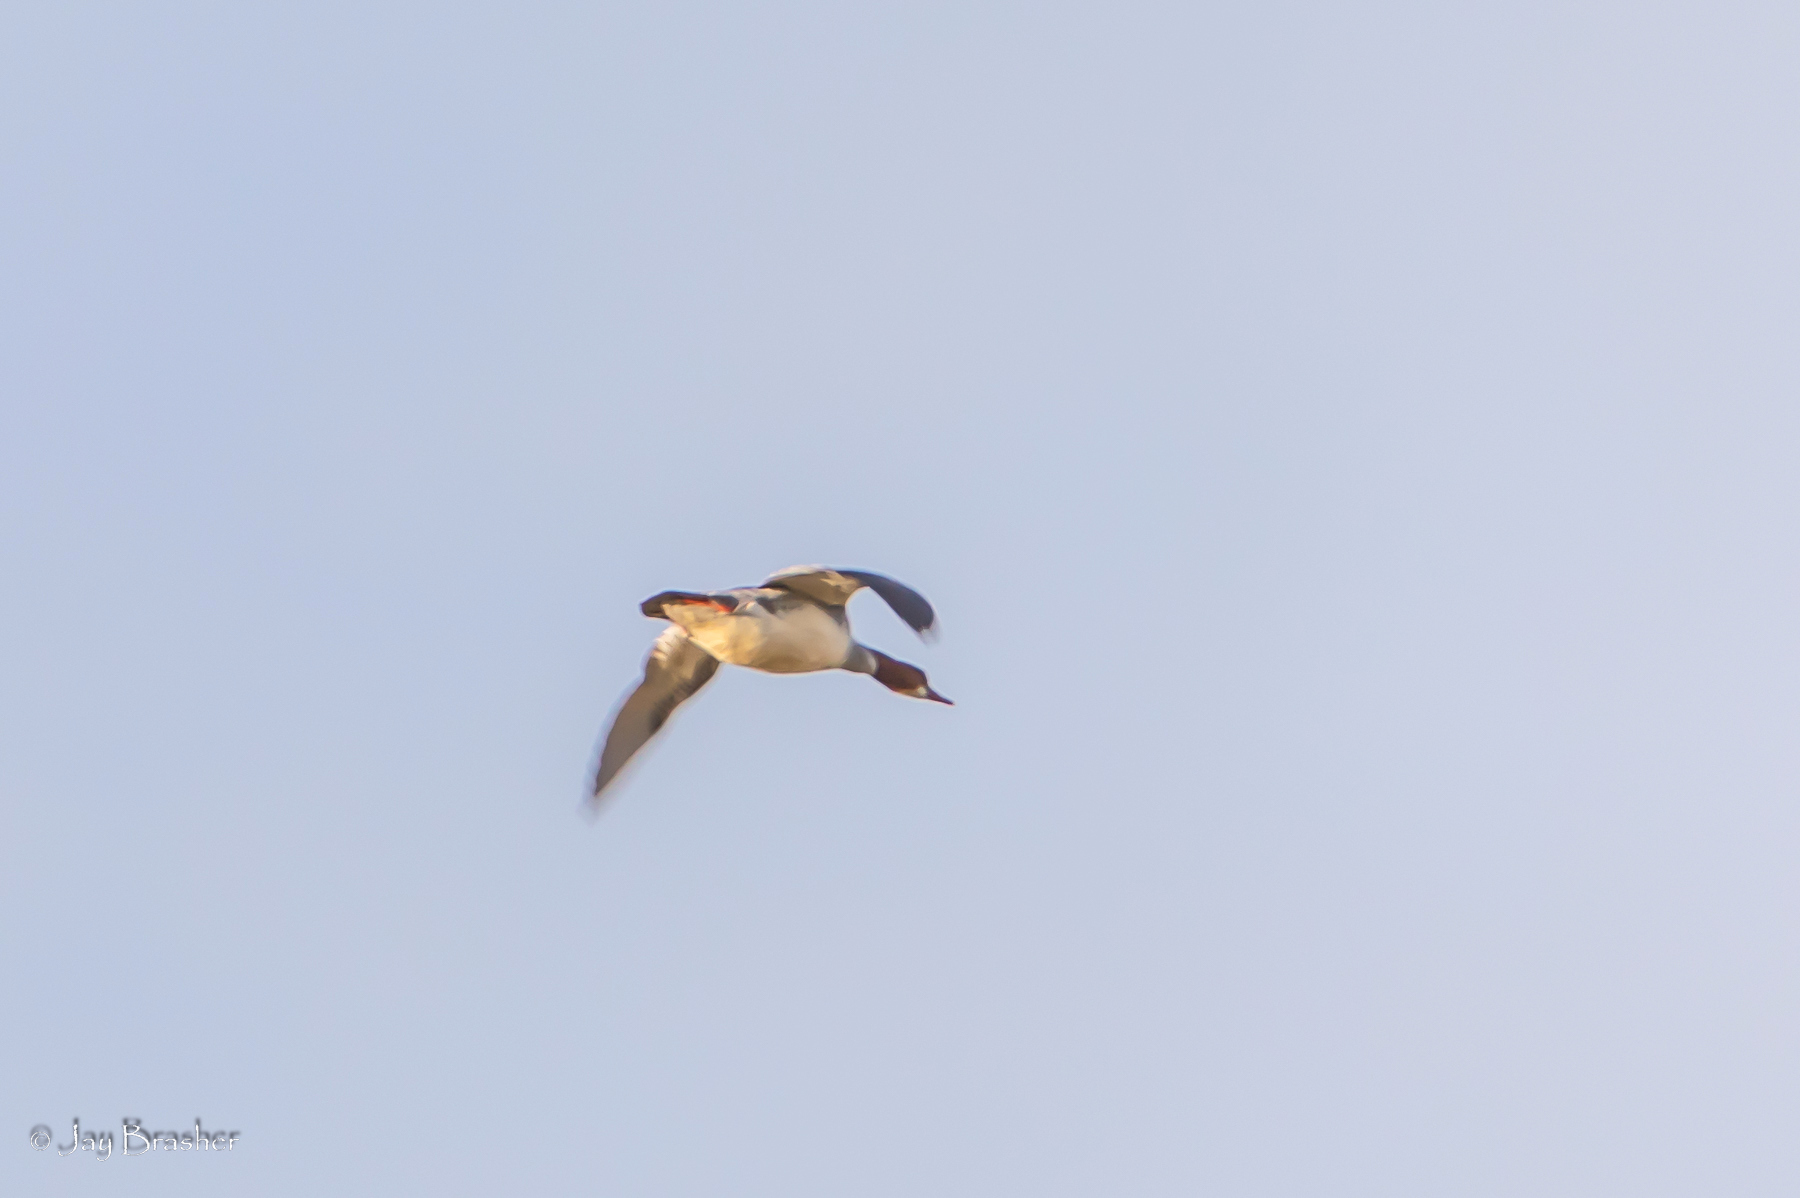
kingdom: Animalia
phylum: Chordata
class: Aves
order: Anseriformes
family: Anatidae
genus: Mergus
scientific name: Mergus merganser
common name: Common merganser
